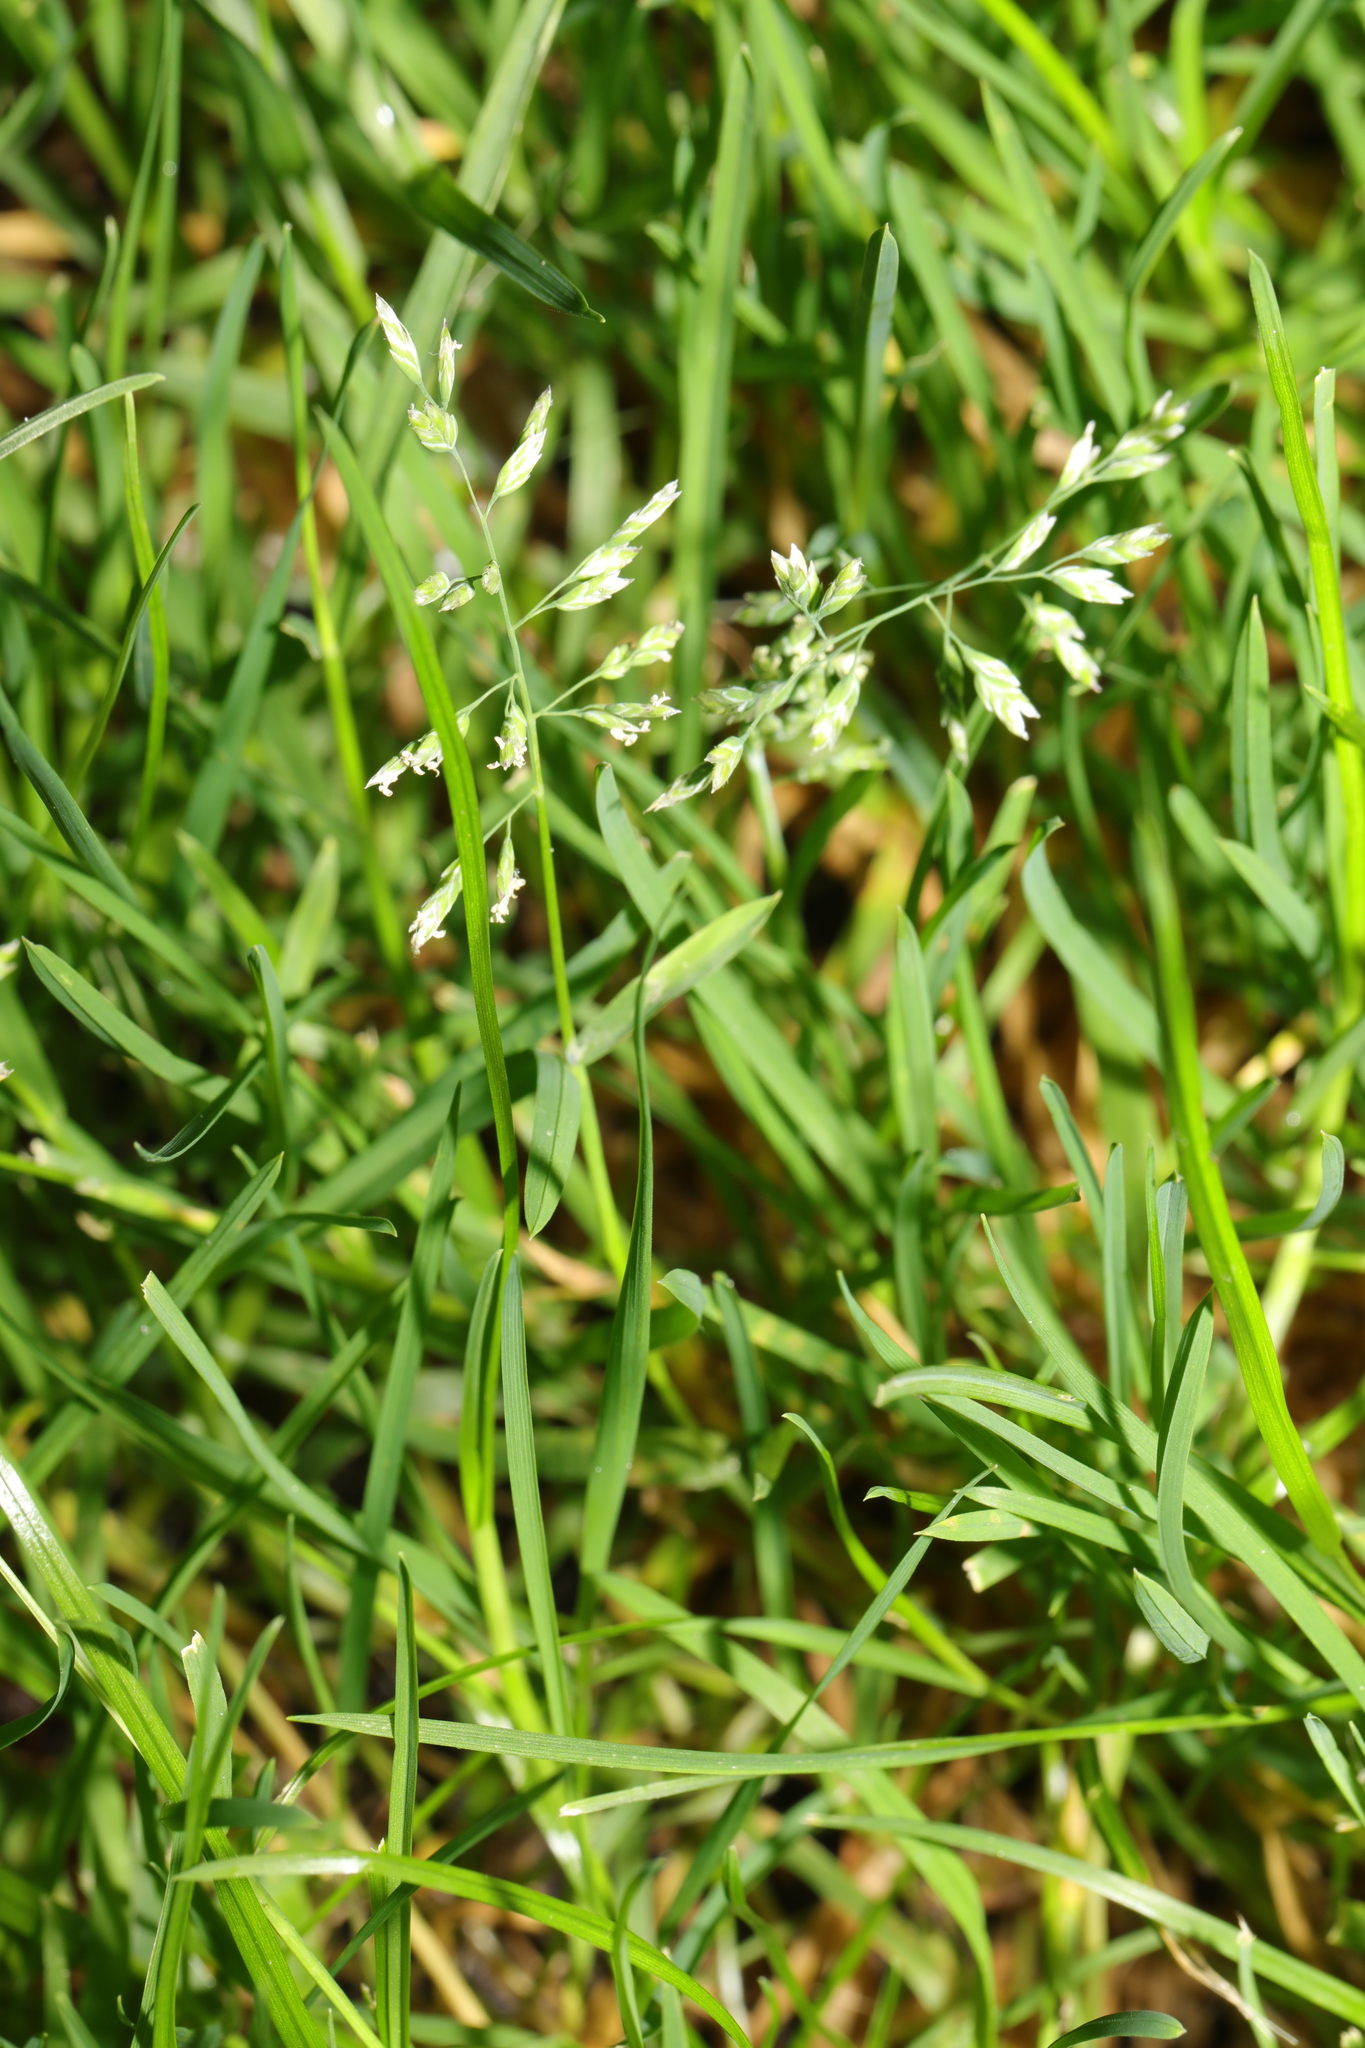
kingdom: Plantae
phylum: Tracheophyta
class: Liliopsida
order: Poales
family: Poaceae
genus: Poa
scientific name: Poa annua
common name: Annual bluegrass
